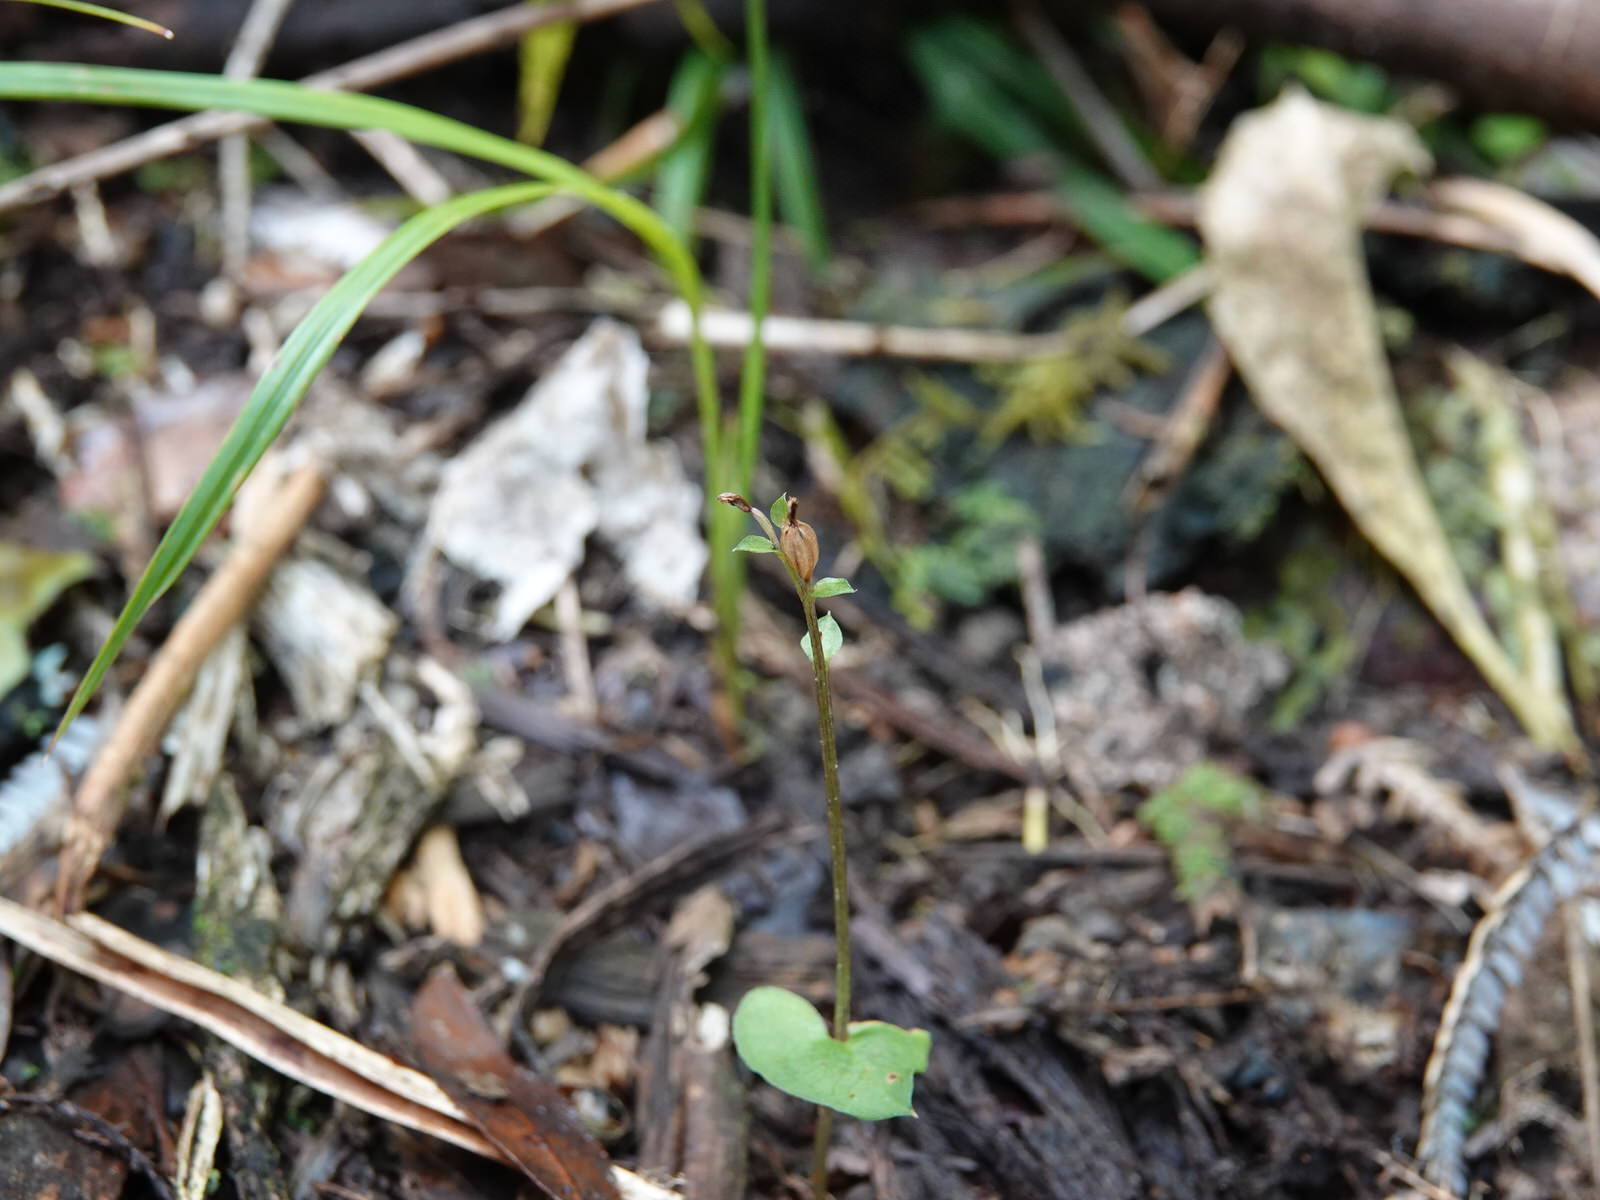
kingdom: Plantae
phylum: Tracheophyta
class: Liliopsida
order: Asparagales
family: Orchidaceae
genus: Acianthus
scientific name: Acianthus sinclairii
